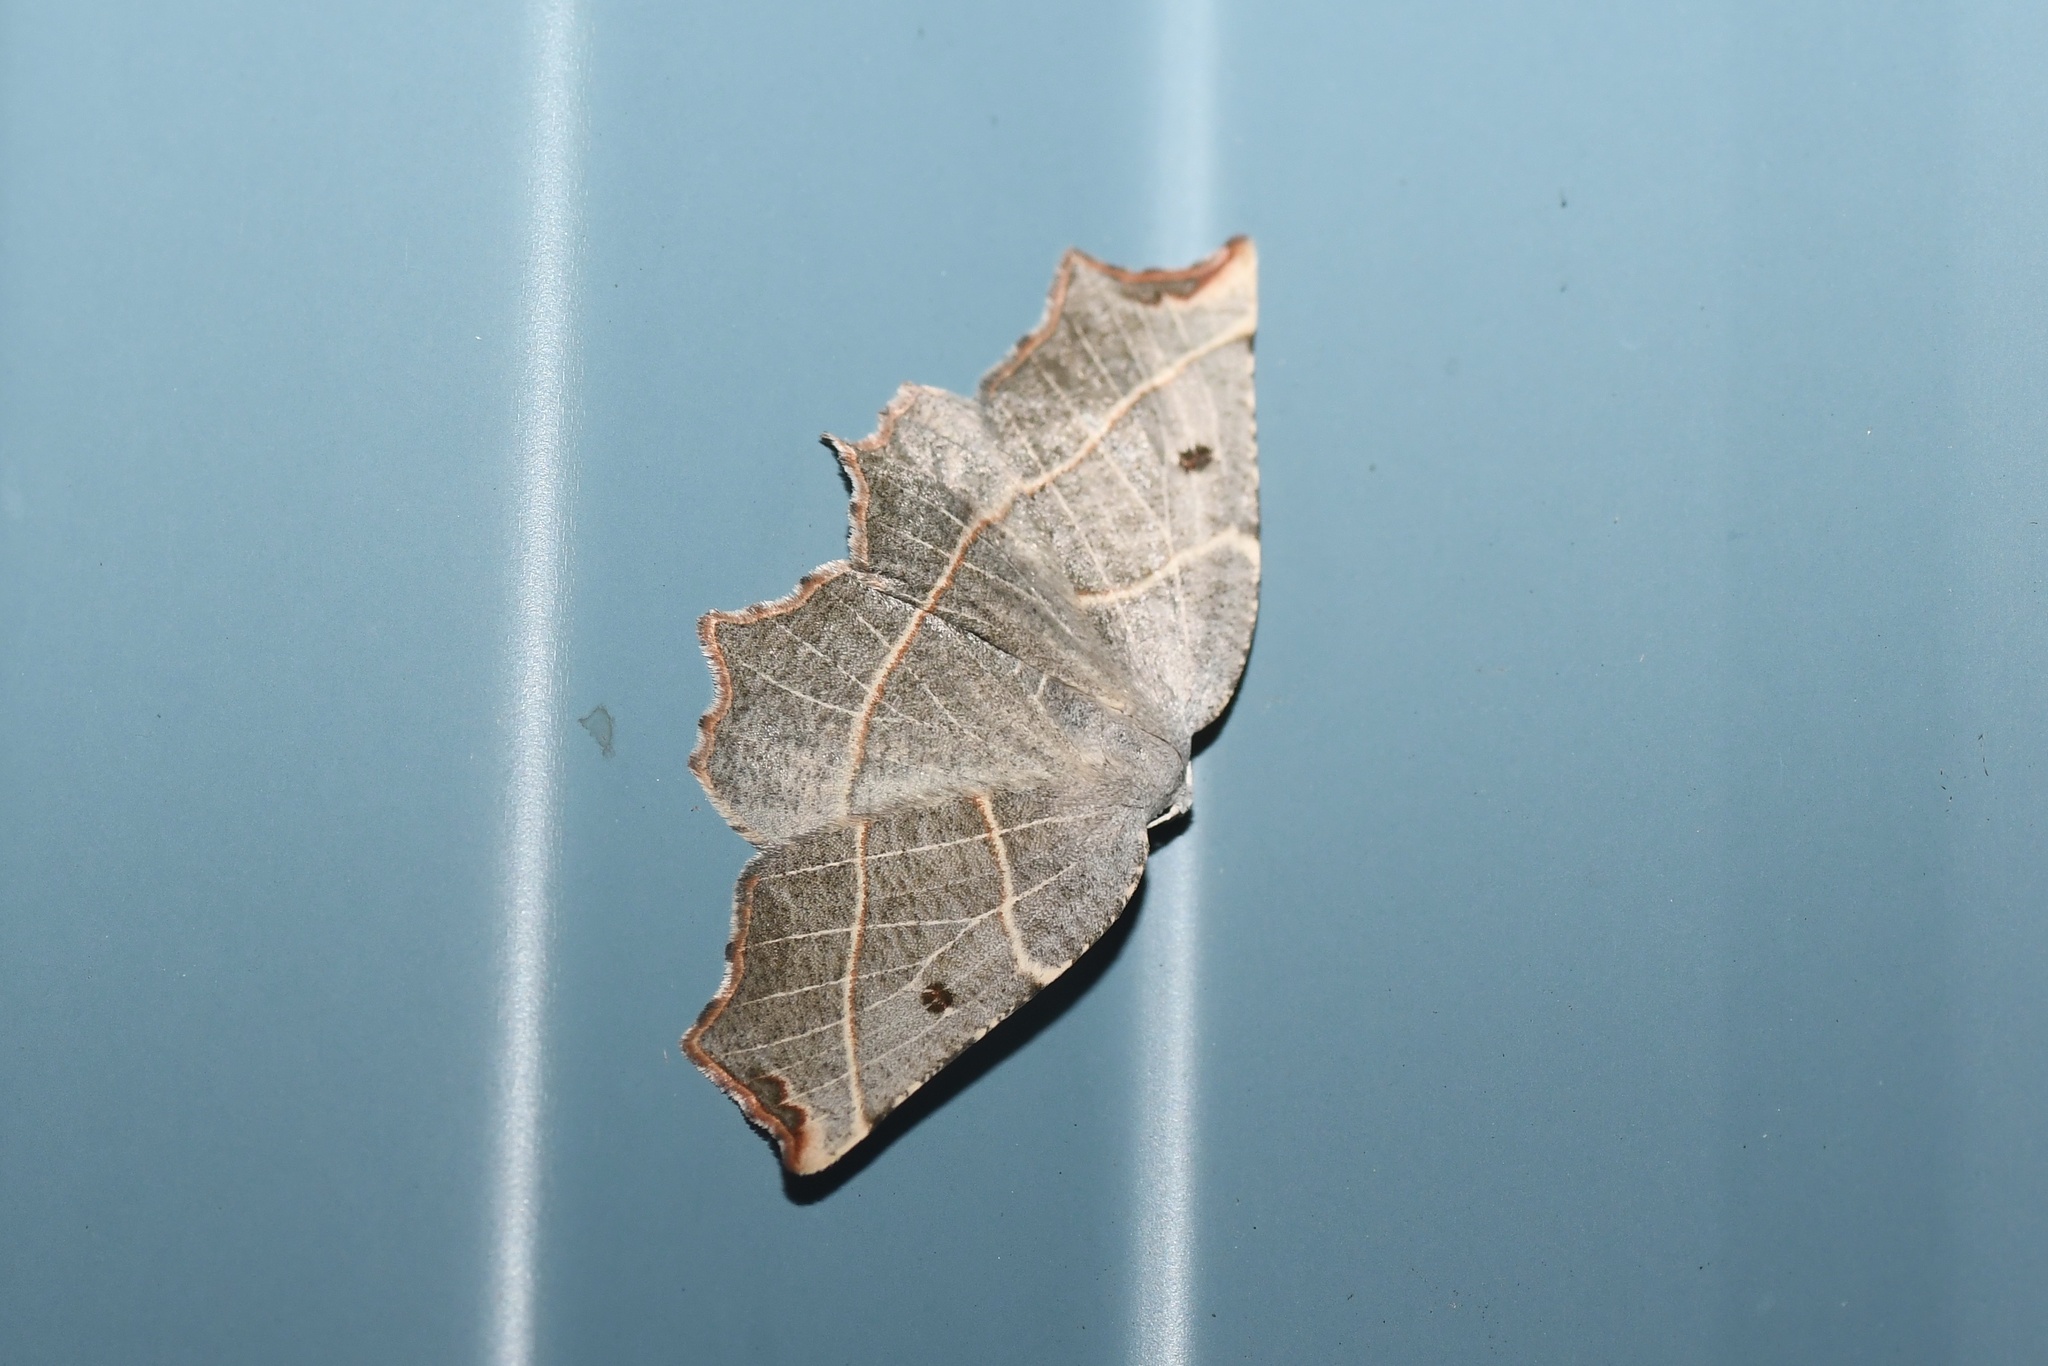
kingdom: Animalia
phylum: Arthropoda
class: Insecta
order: Lepidoptera
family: Geometridae
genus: Metanema
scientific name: Metanema inatomaria
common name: Pale metanema
